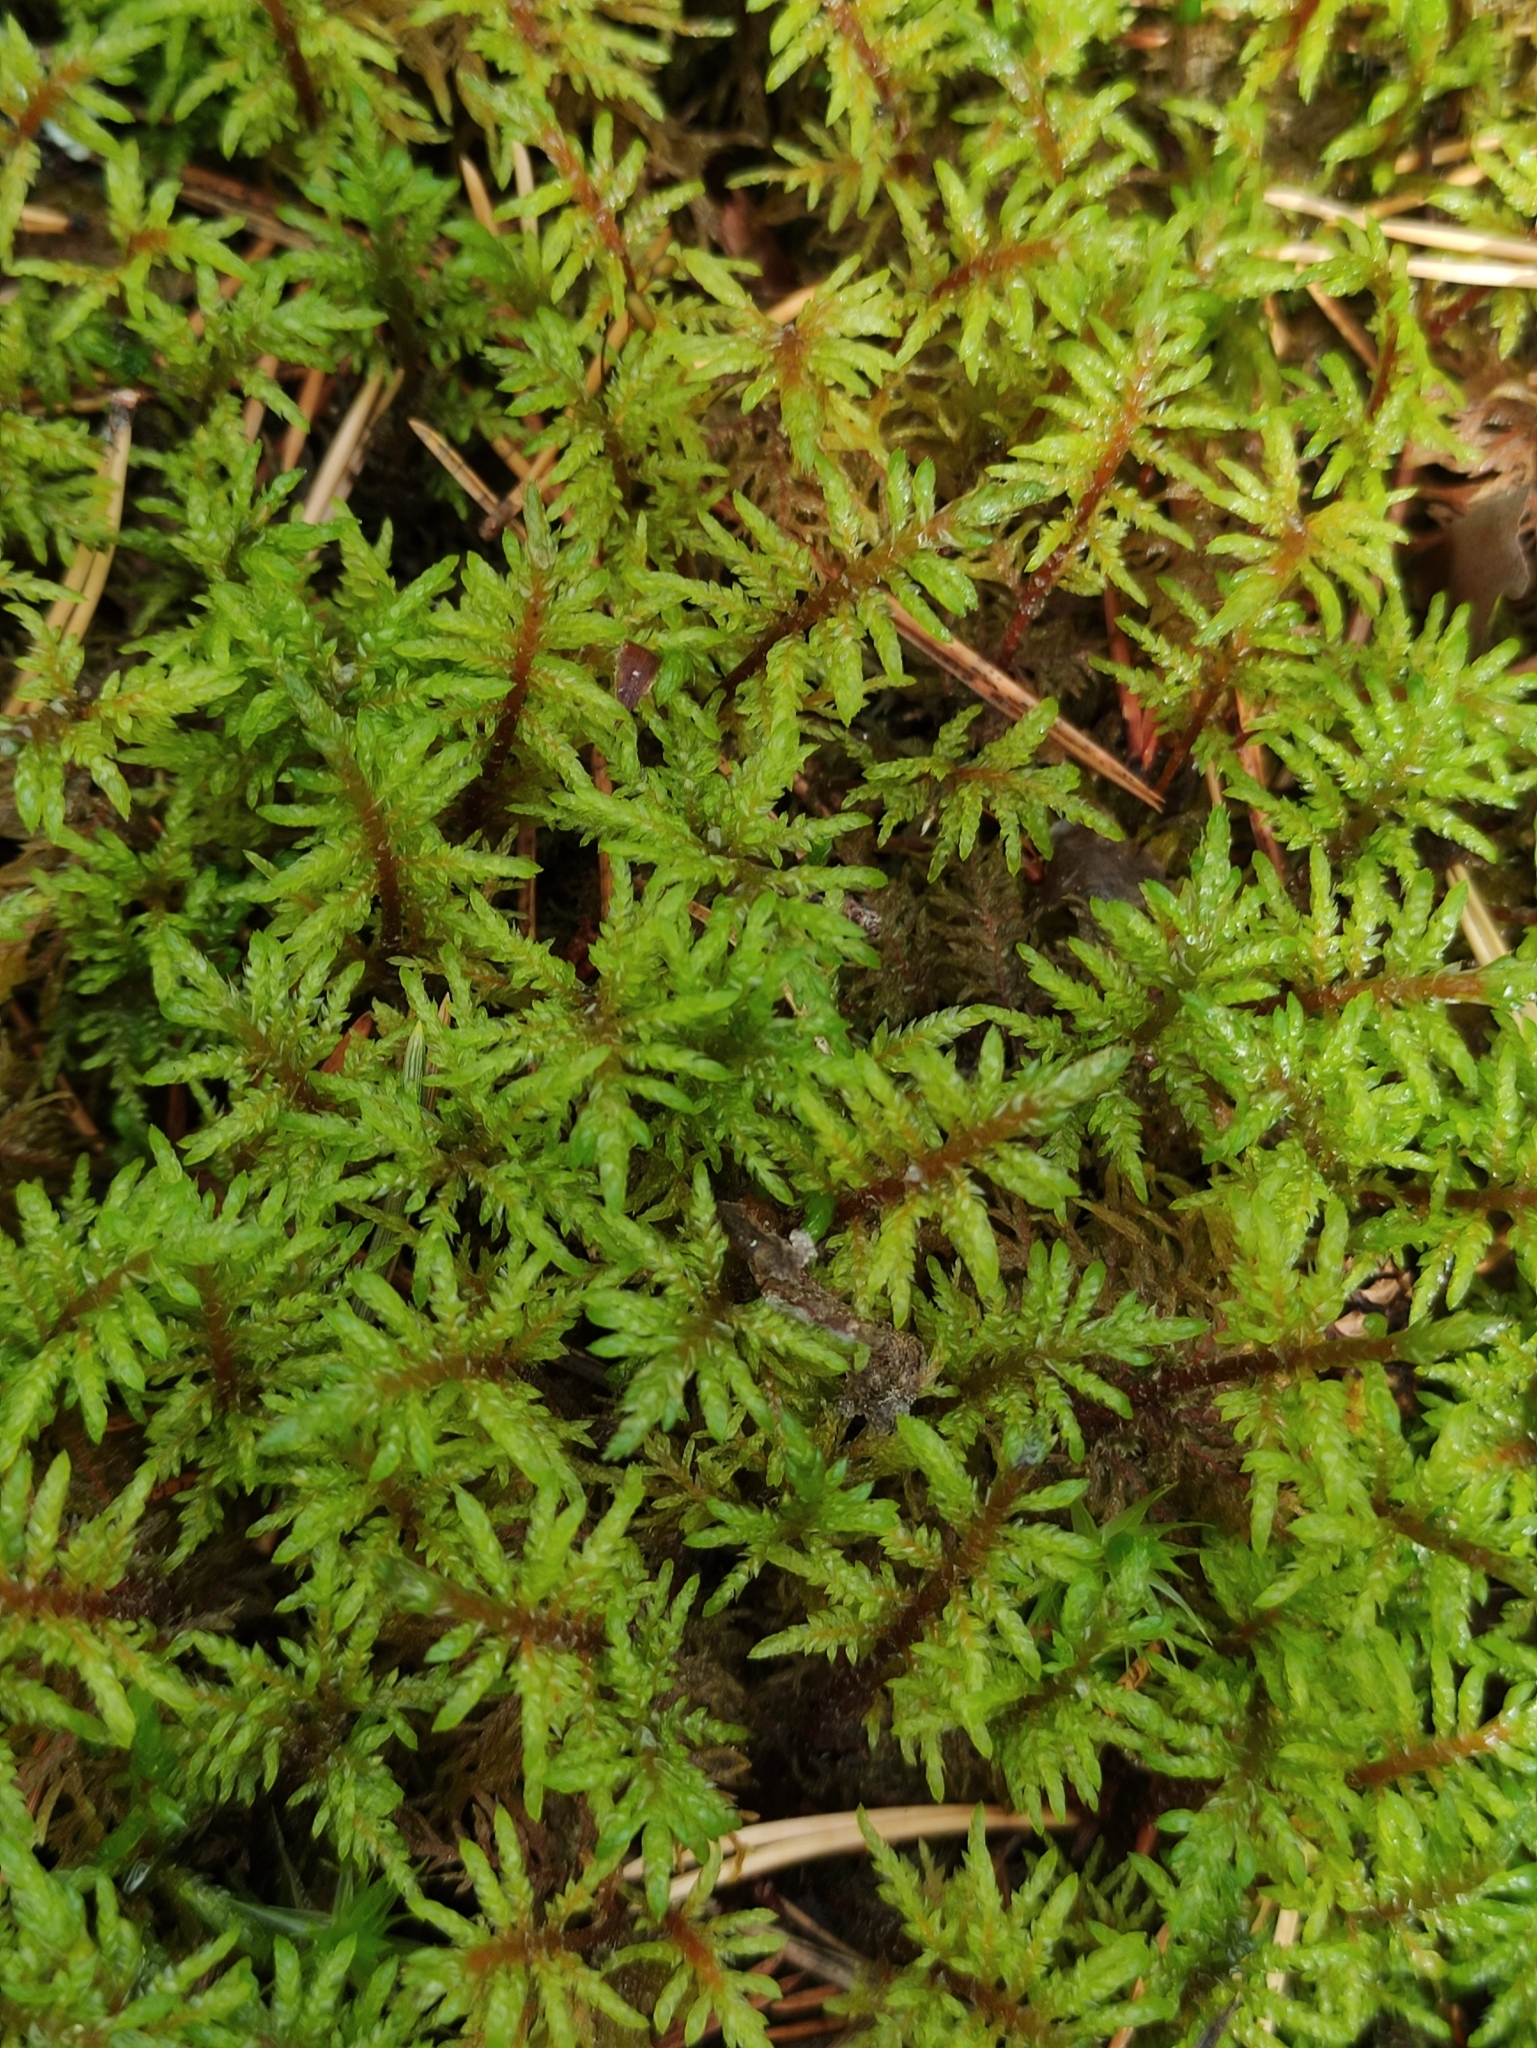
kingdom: Plantae
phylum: Bryophyta
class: Bryopsida
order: Hypnales
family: Hylocomiaceae
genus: Hylocomium
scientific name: Hylocomium splendens
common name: Stairstep moss
